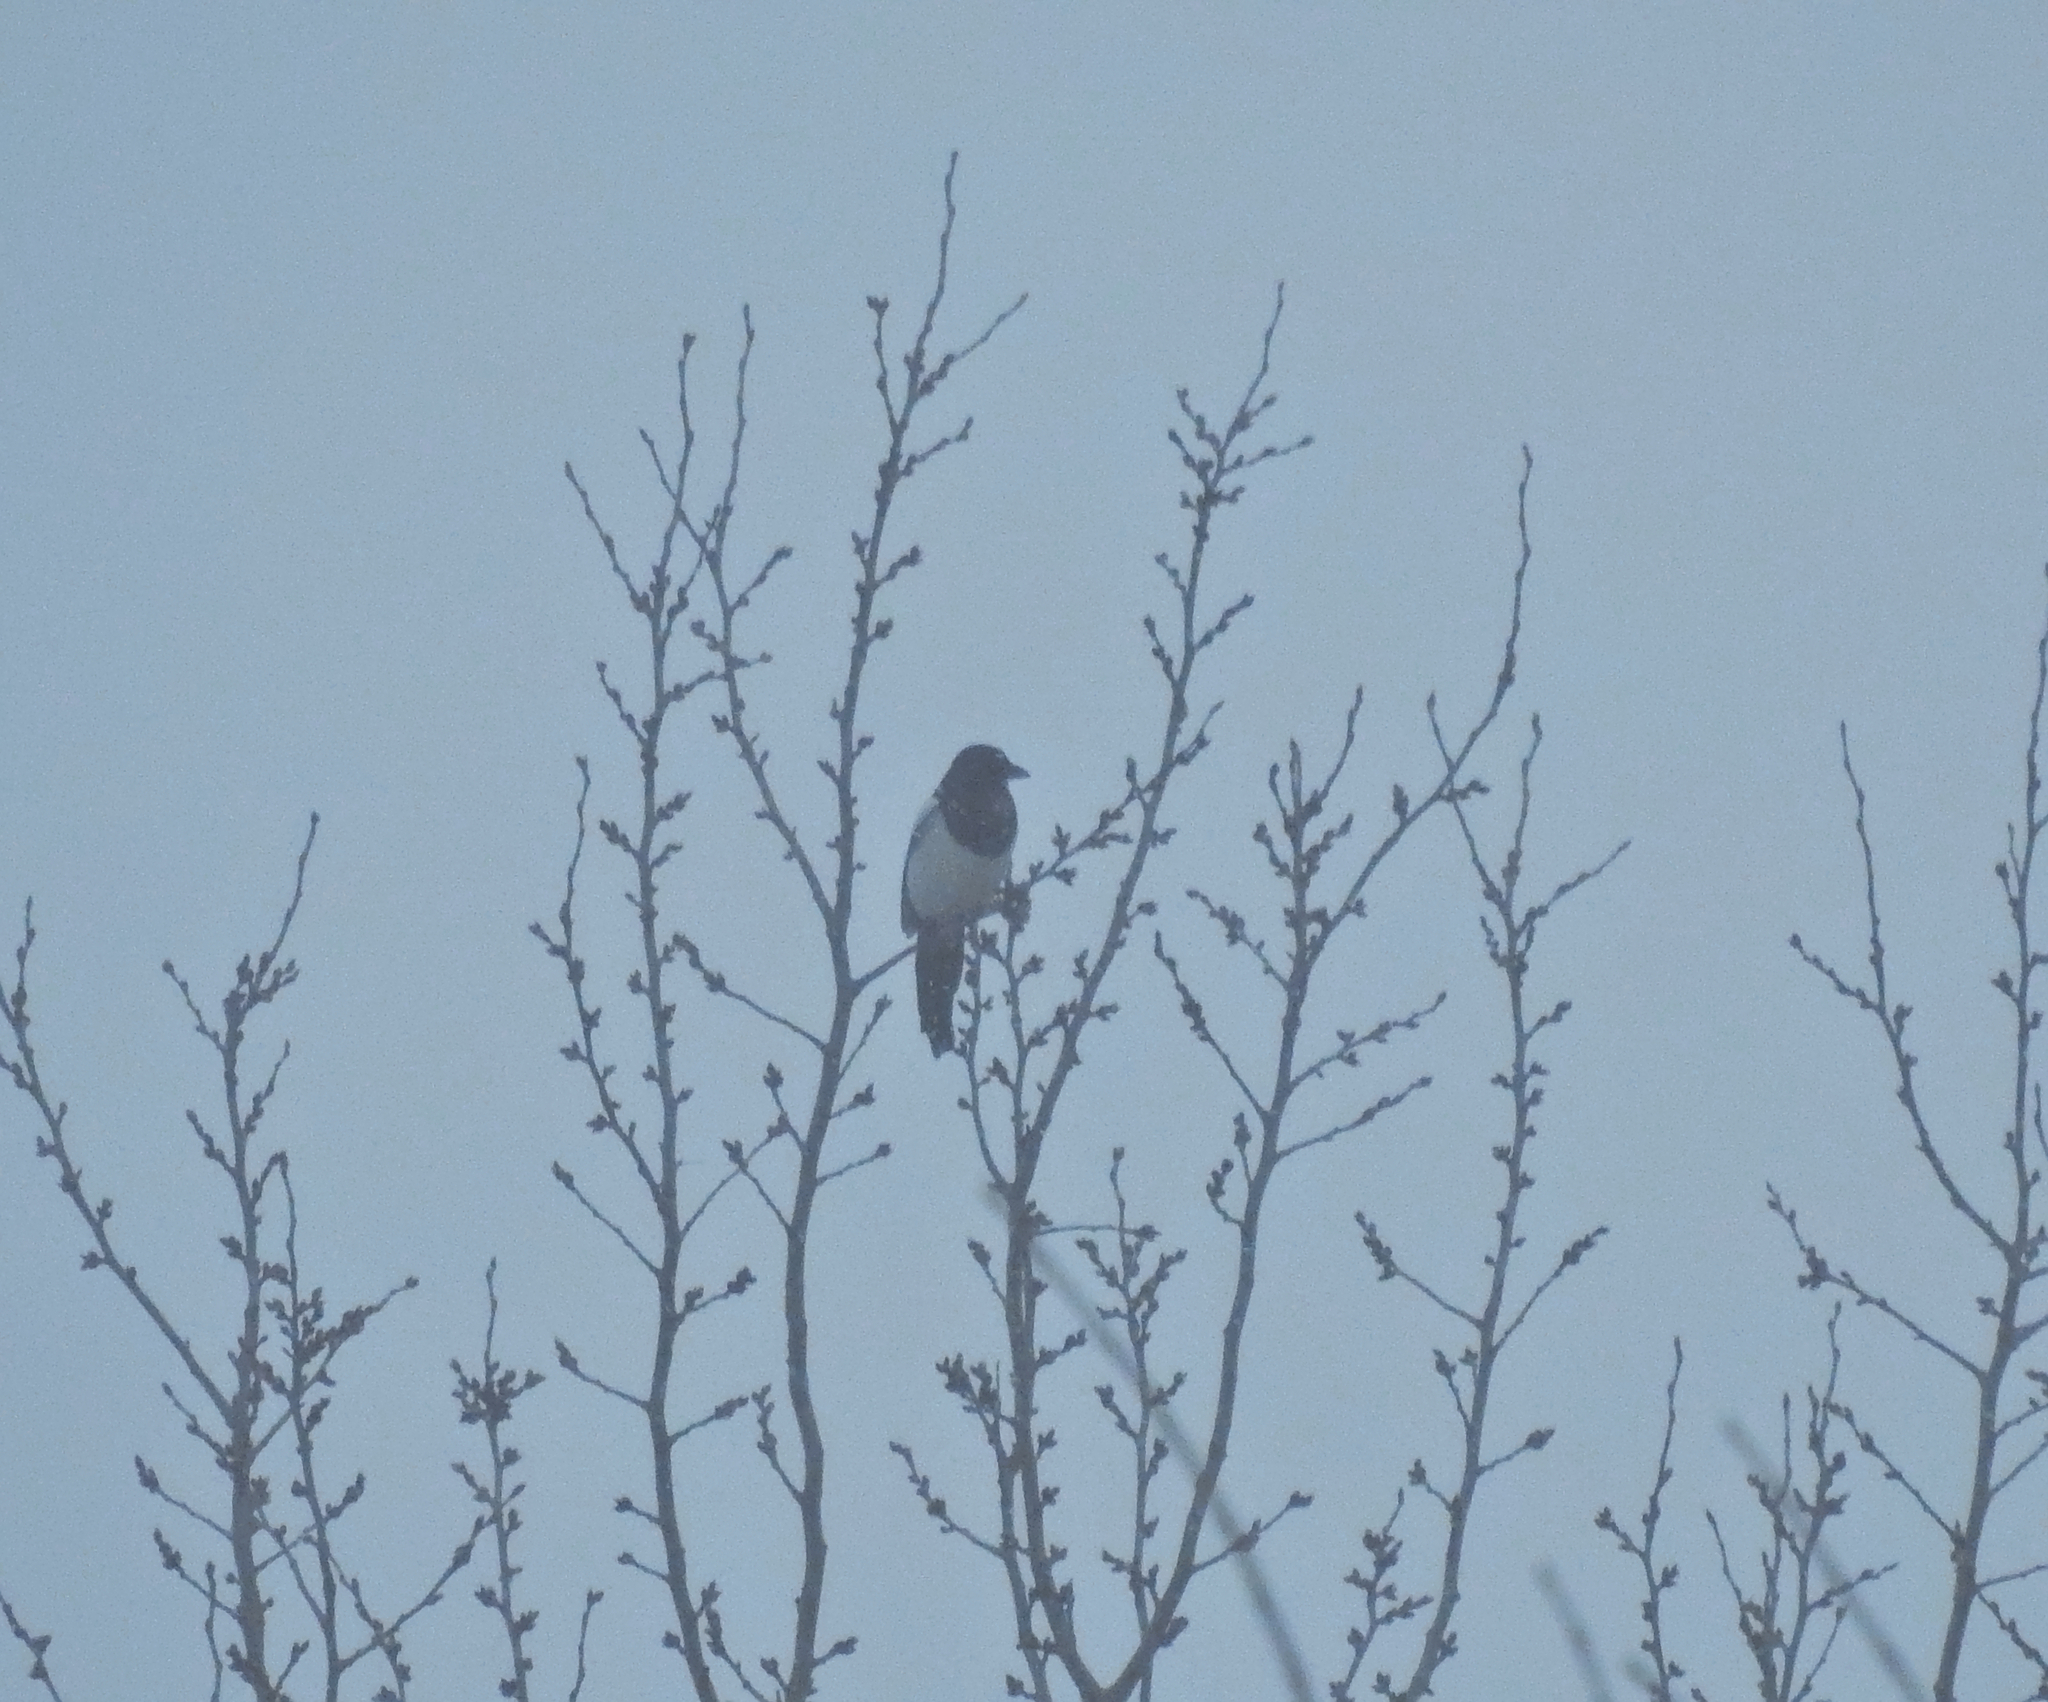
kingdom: Animalia
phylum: Chordata
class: Aves
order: Passeriformes
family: Corvidae
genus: Pica
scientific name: Pica pica
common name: Eurasian magpie
